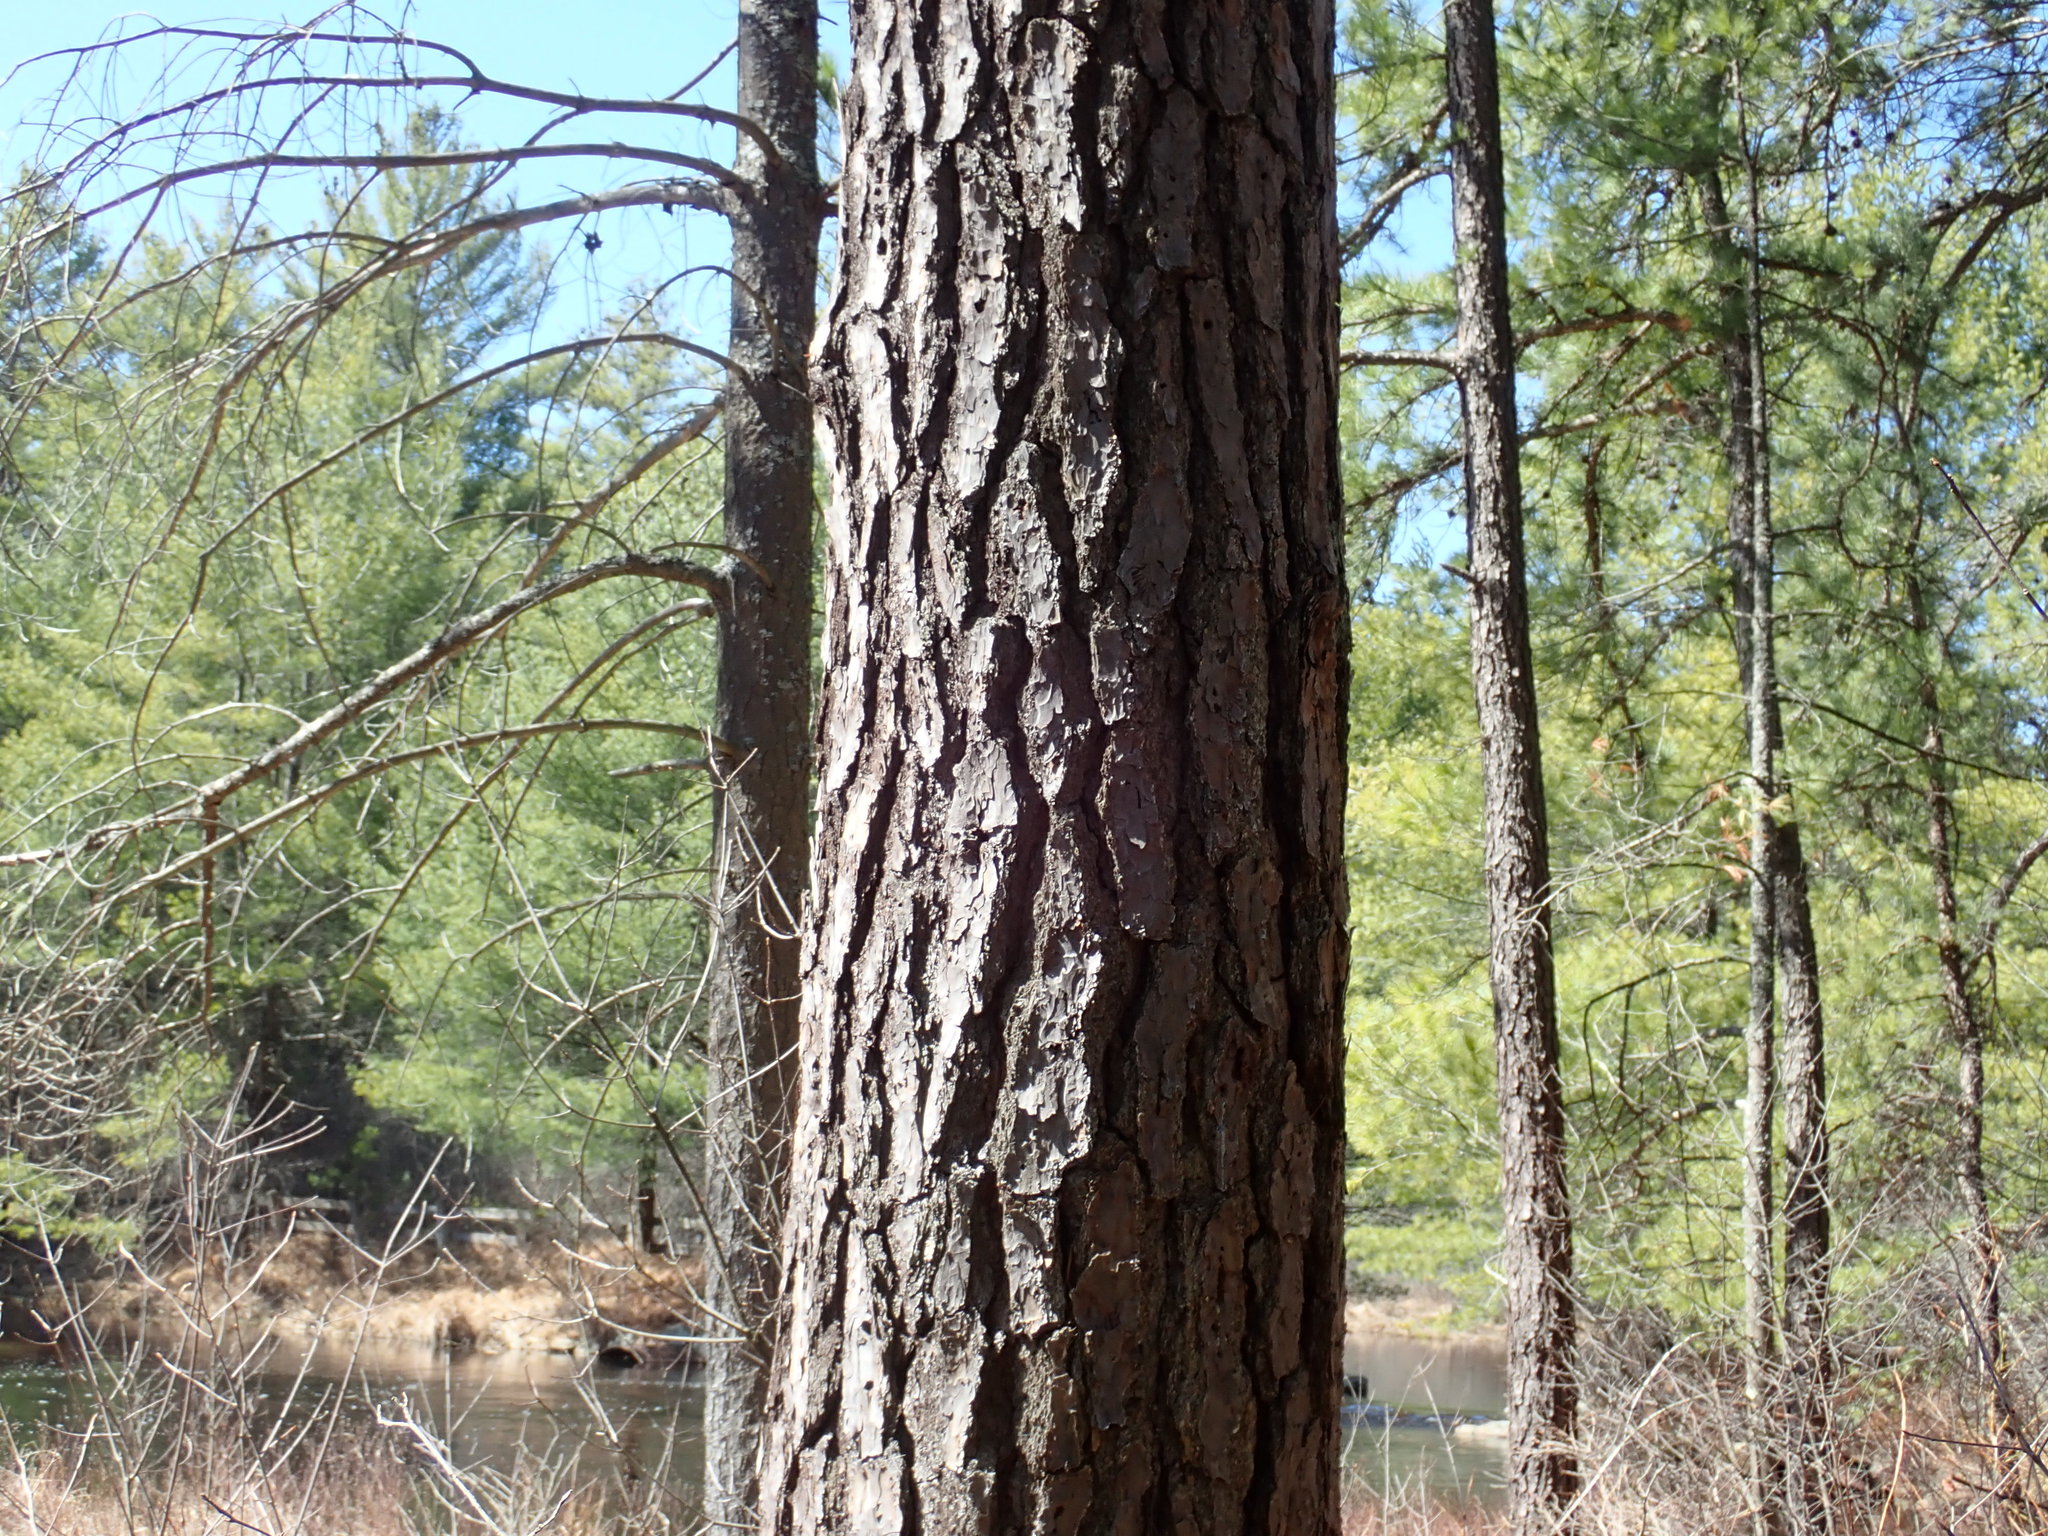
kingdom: Plantae
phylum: Tracheophyta
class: Pinopsida
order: Pinales
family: Pinaceae
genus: Pinus
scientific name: Pinus rigida
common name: Pitch pine
